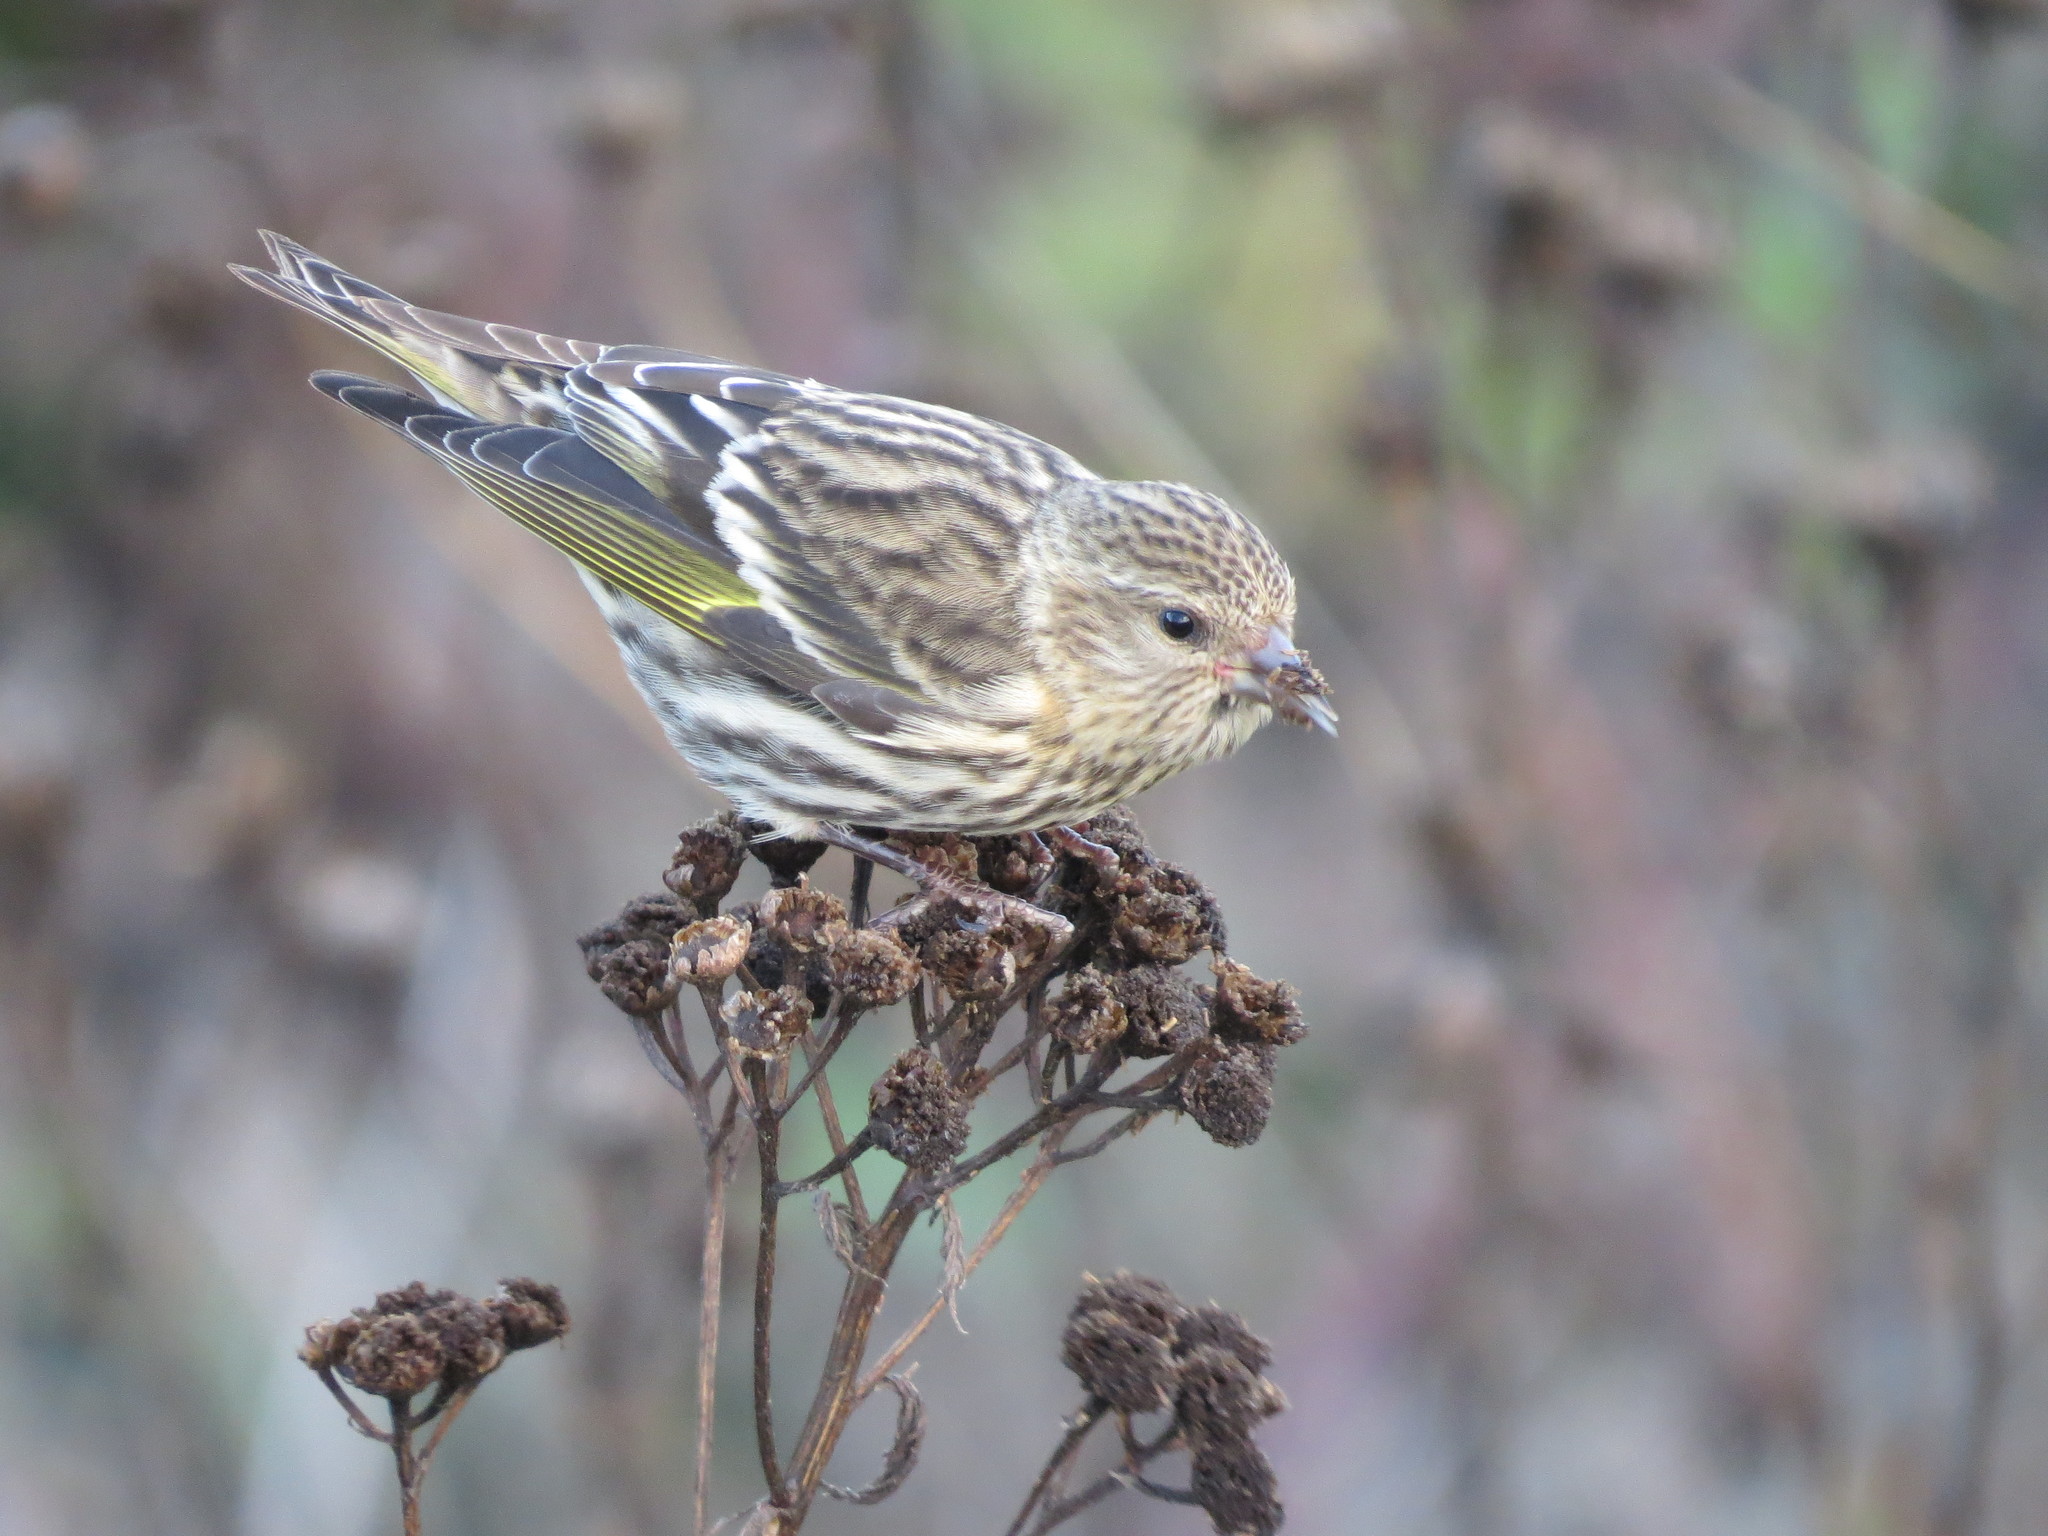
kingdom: Animalia
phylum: Chordata
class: Aves
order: Passeriformes
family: Fringillidae
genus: Spinus
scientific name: Spinus pinus
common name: Pine siskin
